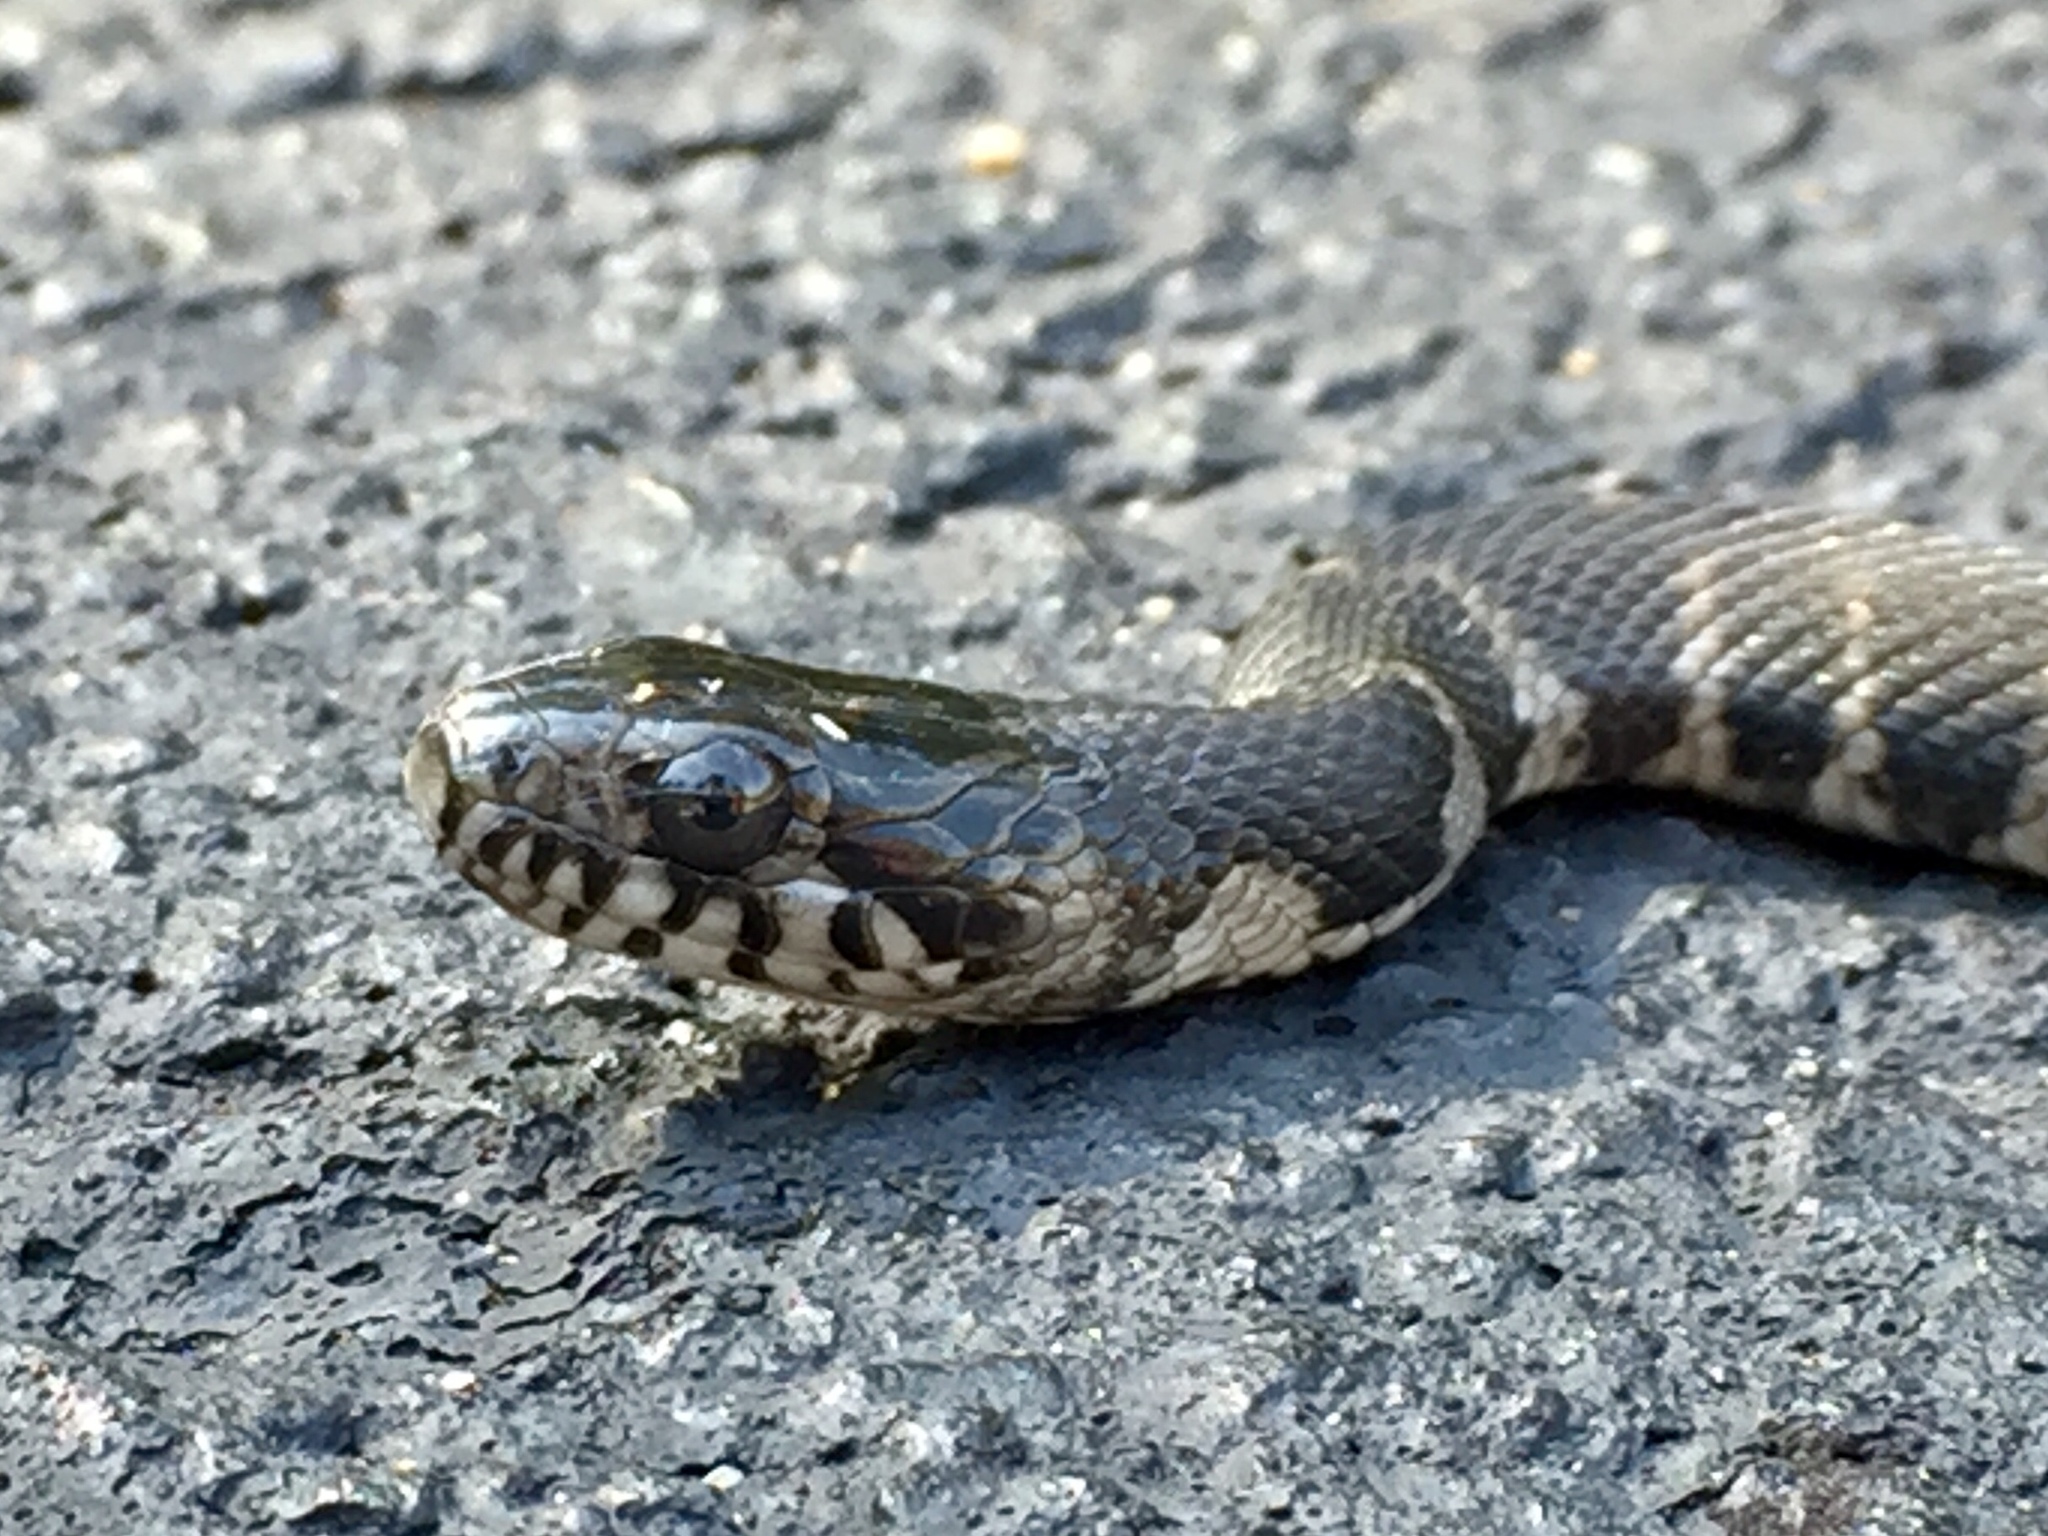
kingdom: Animalia
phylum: Chordata
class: Squamata
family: Colubridae
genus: Nerodia
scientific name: Nerodia sipedon
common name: Northern water snake
